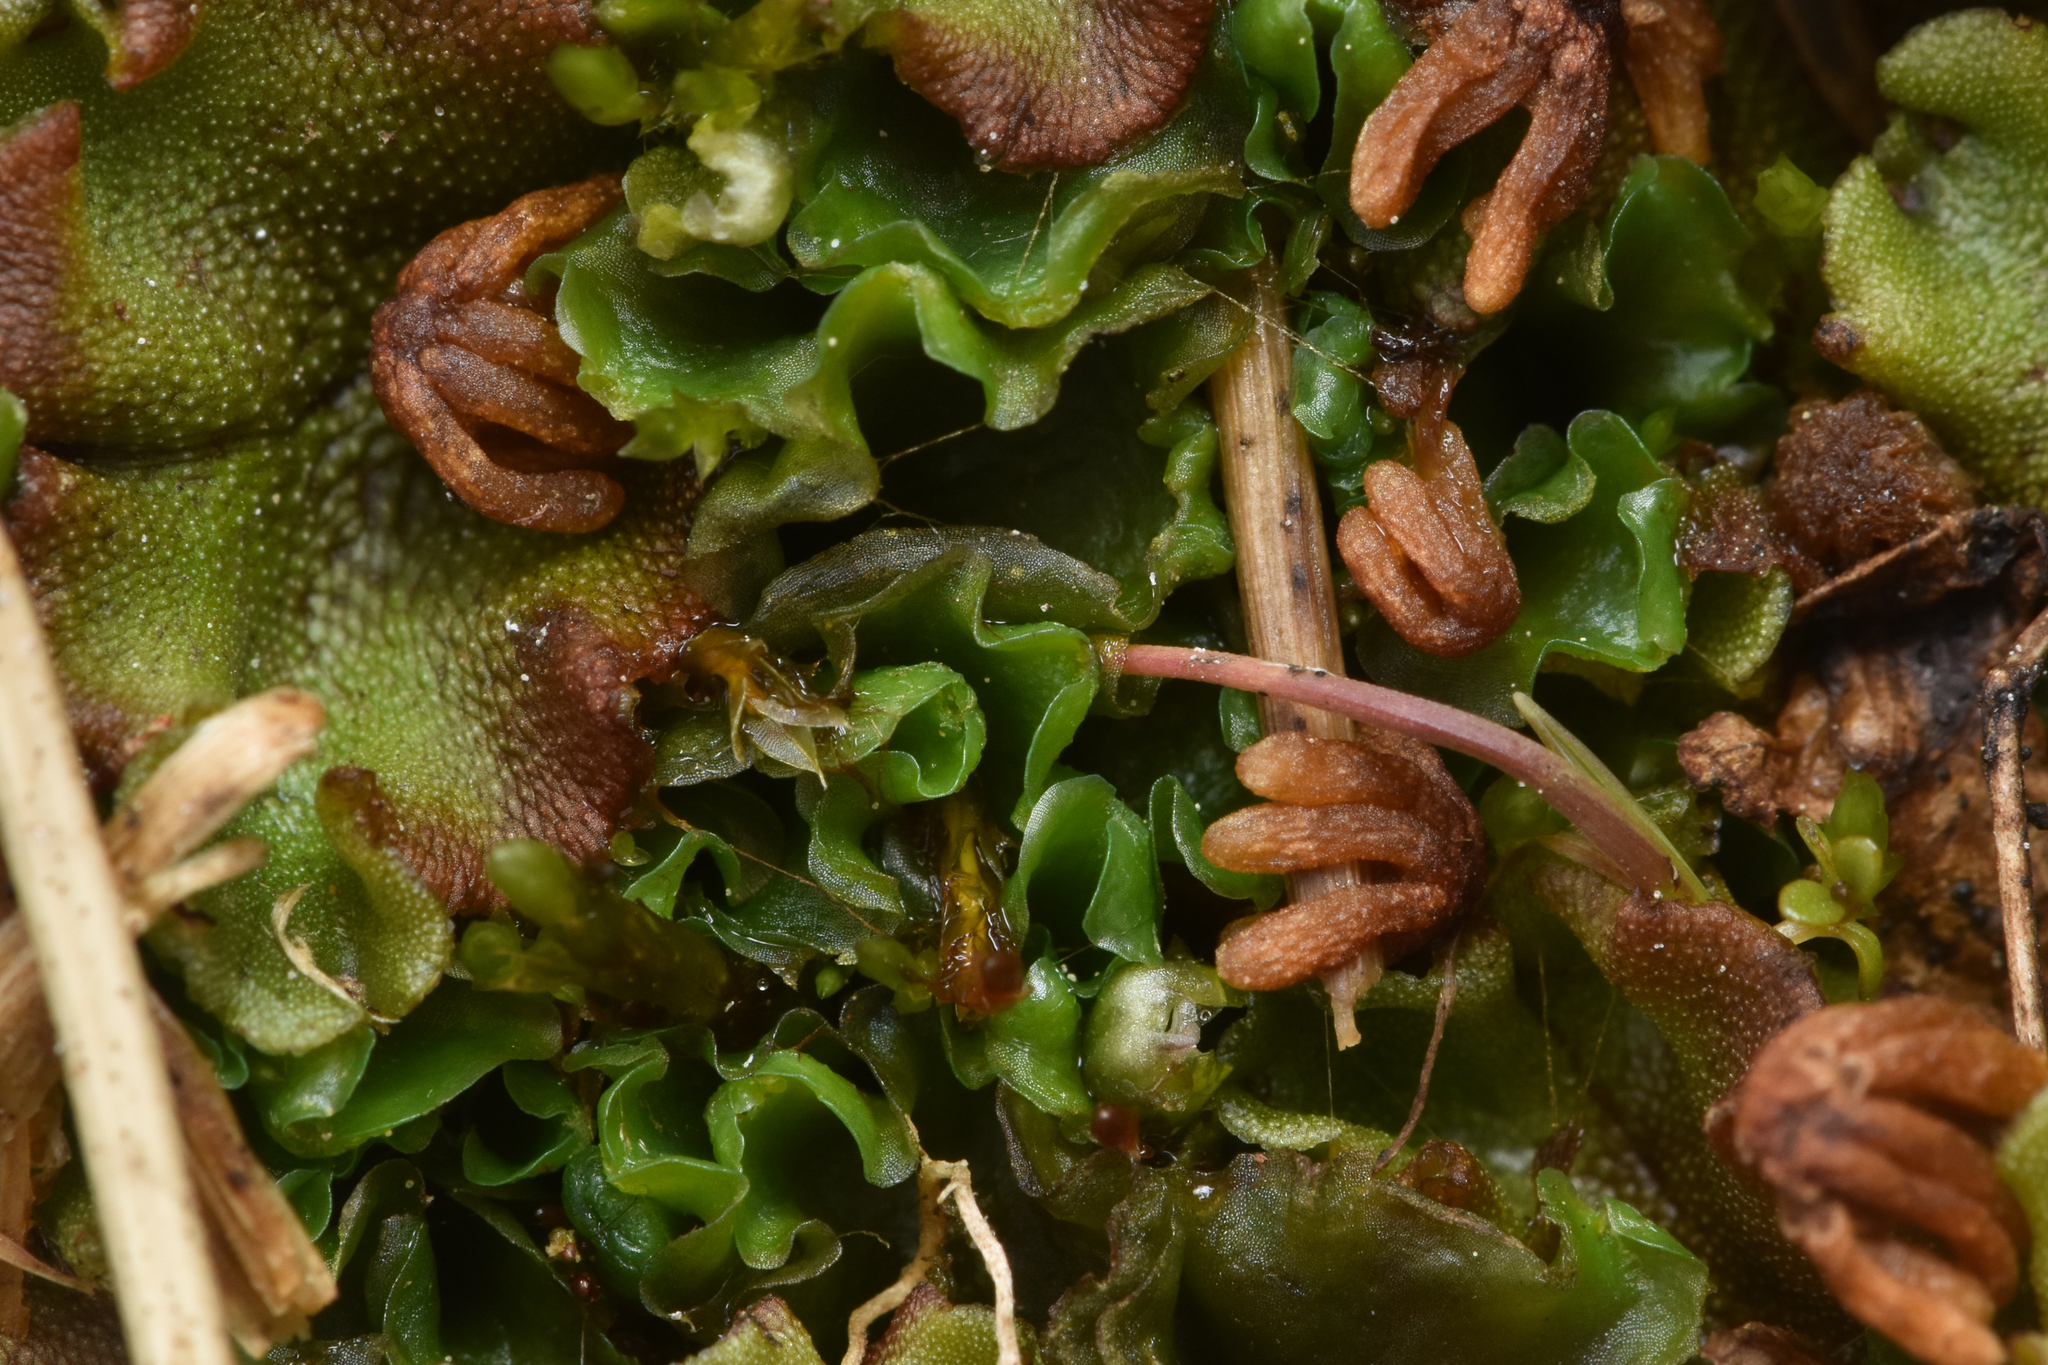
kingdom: Plantae
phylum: Marchantiophyta
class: Jungermanniopsida
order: Pallaviciniales
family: Pseudomoerckiaceae
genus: Pseudomoerckia
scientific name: Pseudomoerckia blyttii
